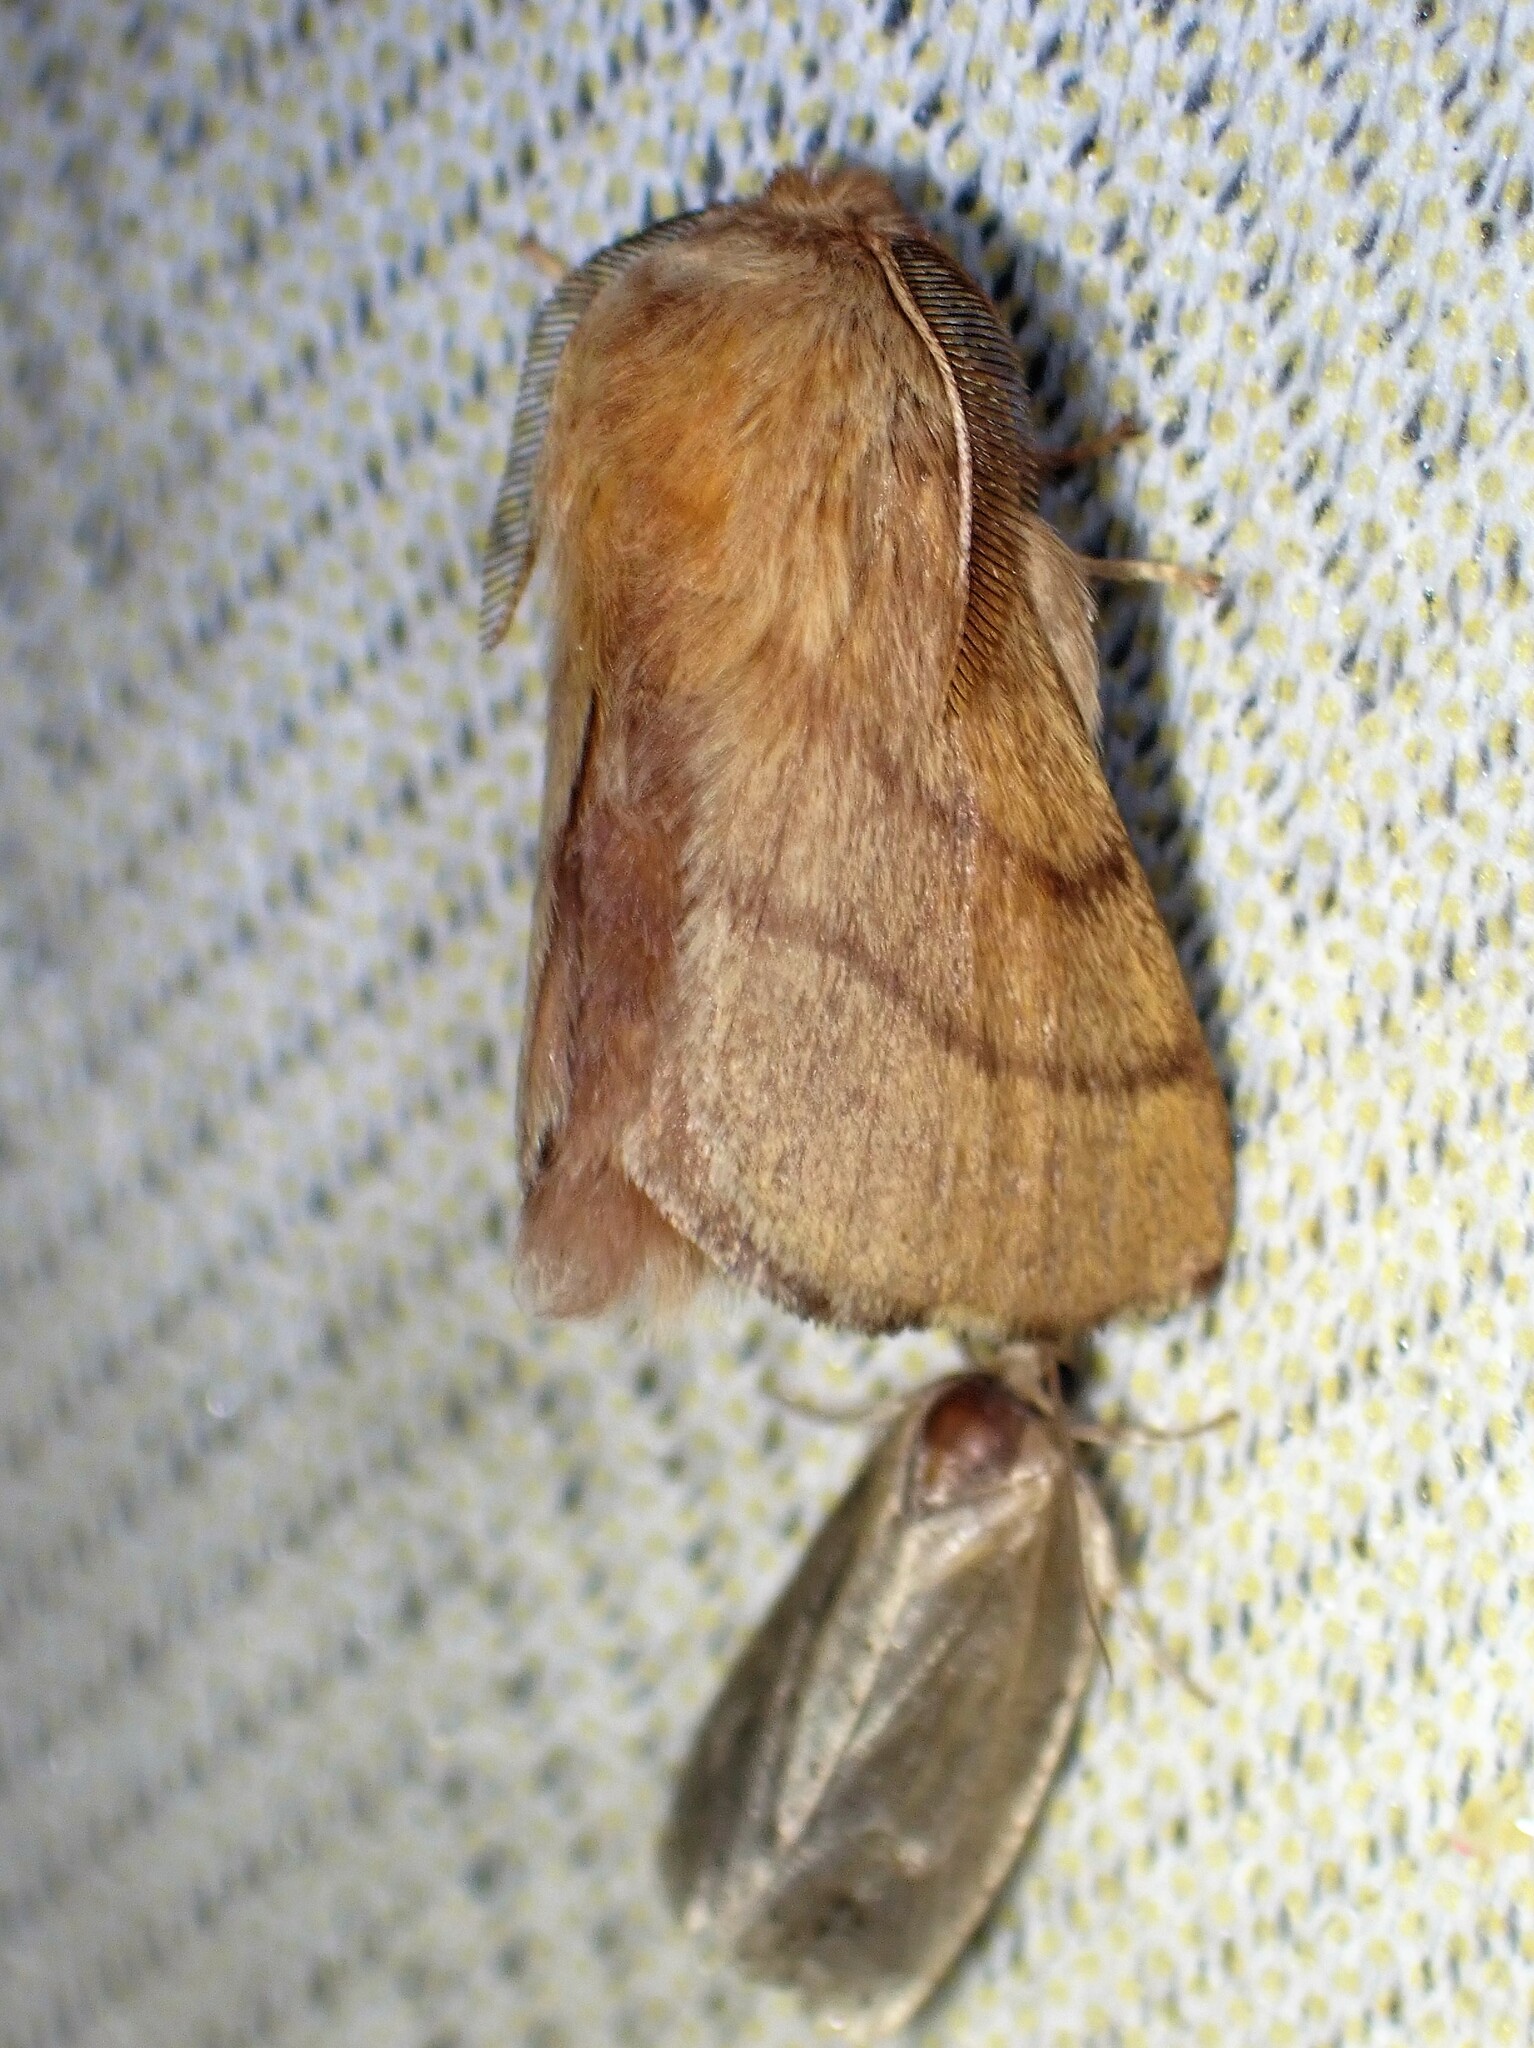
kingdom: Animalia
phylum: Arthropoda
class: Insecta
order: Lepidoptera
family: Lasiocampidae
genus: Malacosoma
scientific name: Malacosoma disstria
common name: Forest tent caterpillar
